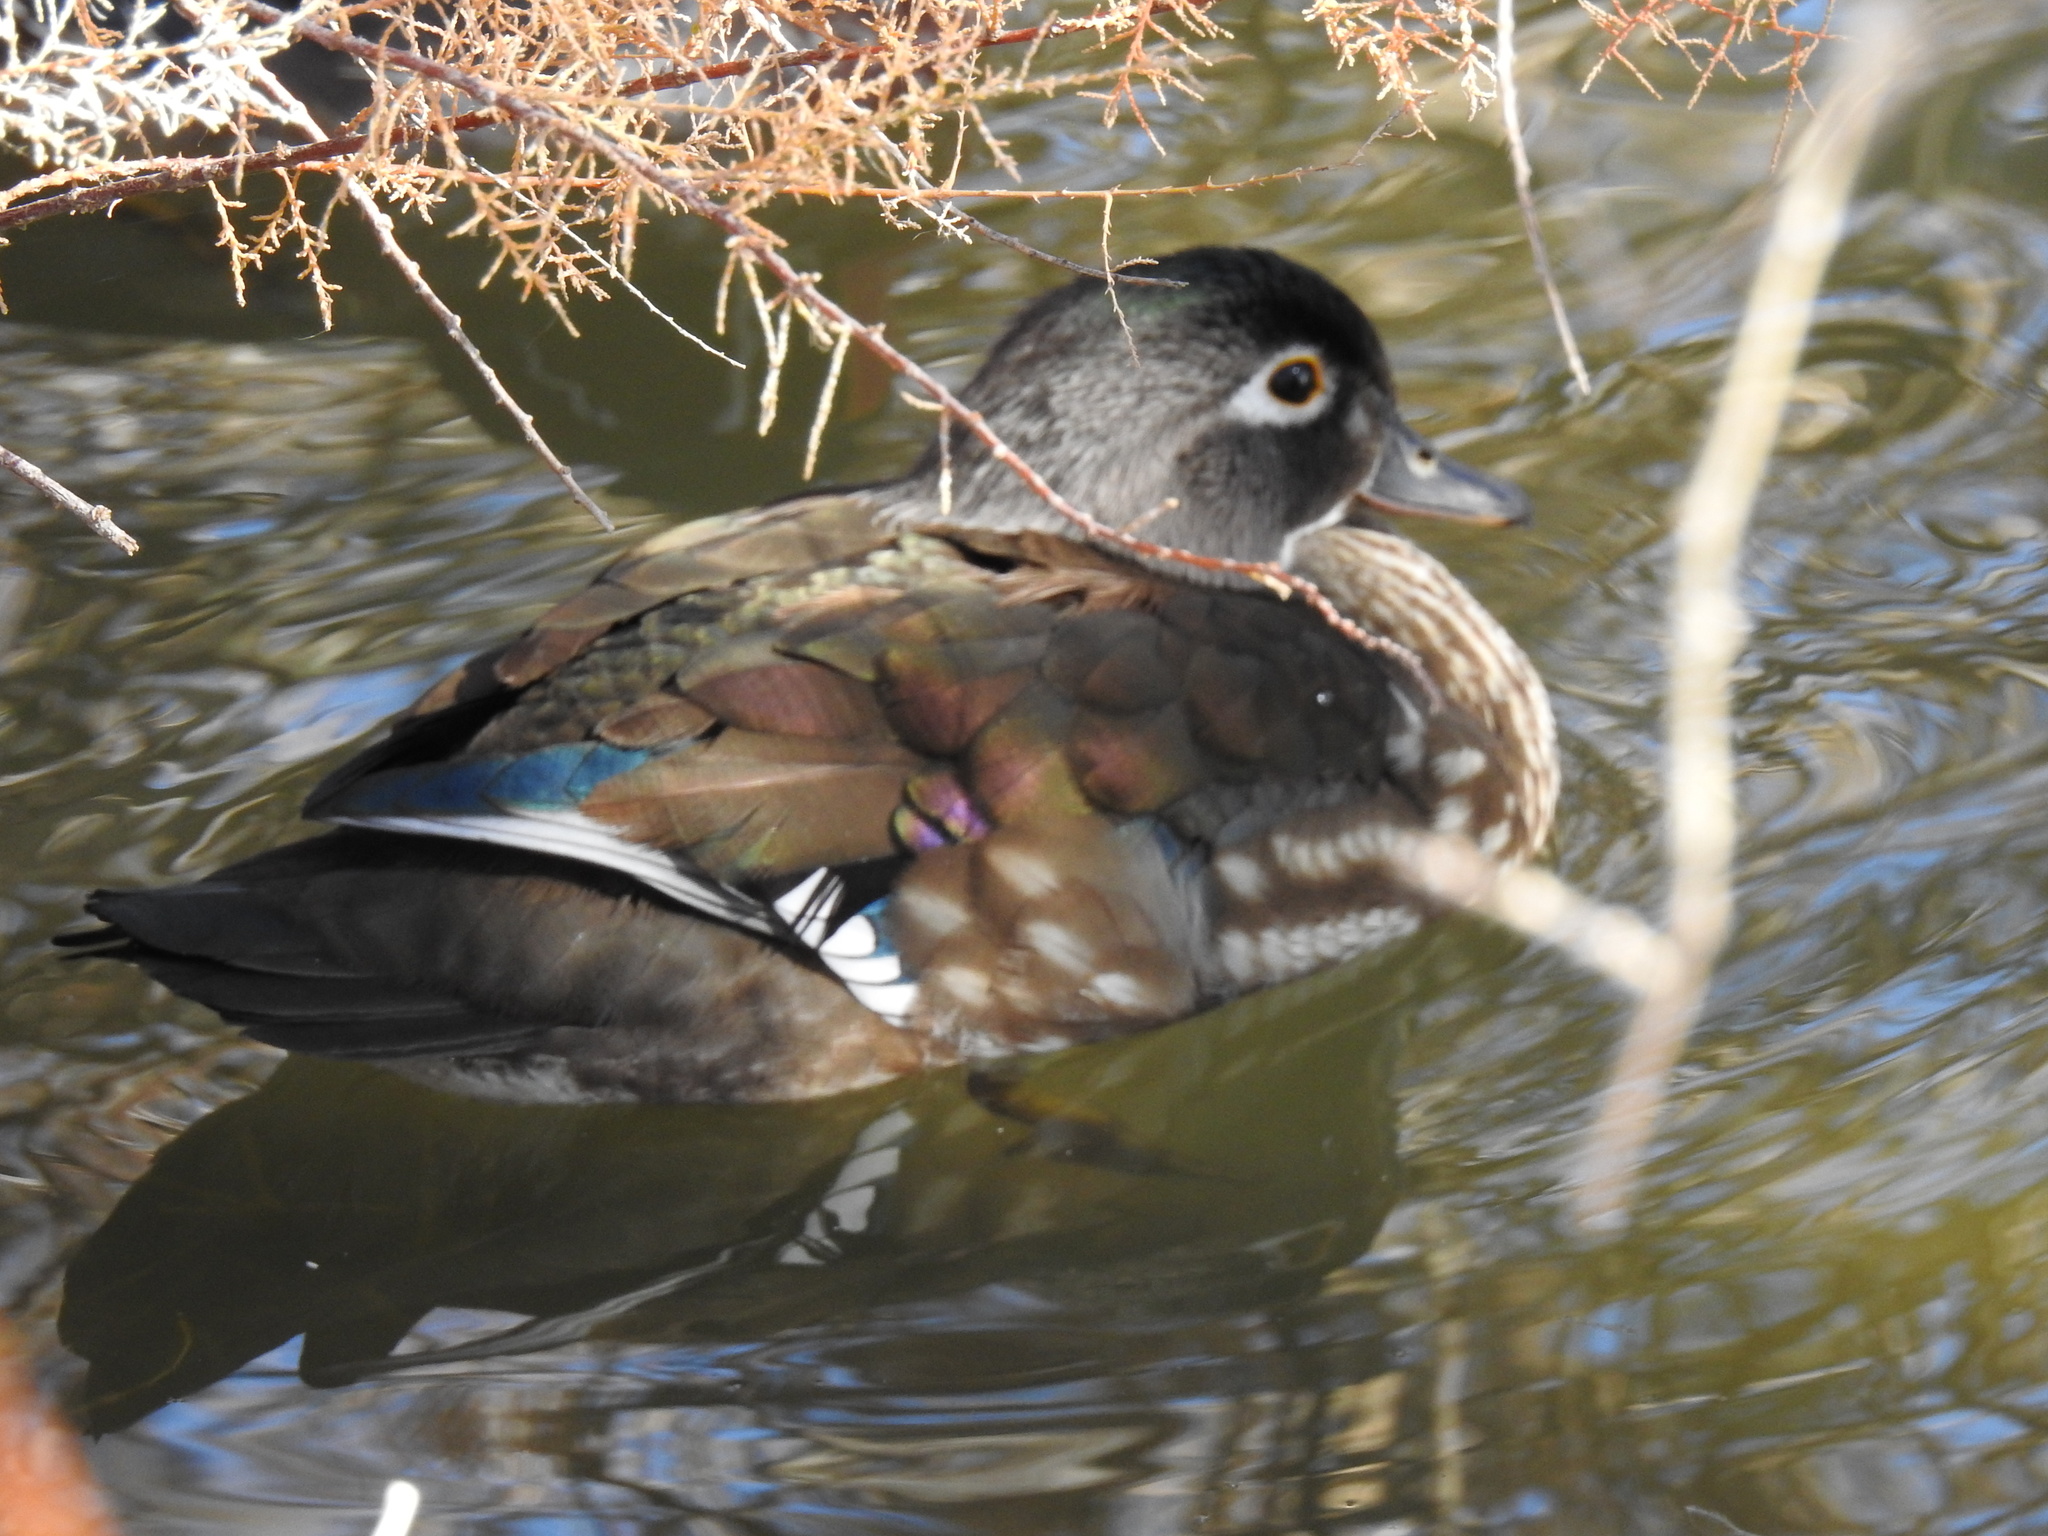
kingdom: Animalia
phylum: Chordata
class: Aves
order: Anseriformes
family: Anatidae
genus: Aix
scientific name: Aix sponsa
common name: Wood duck
